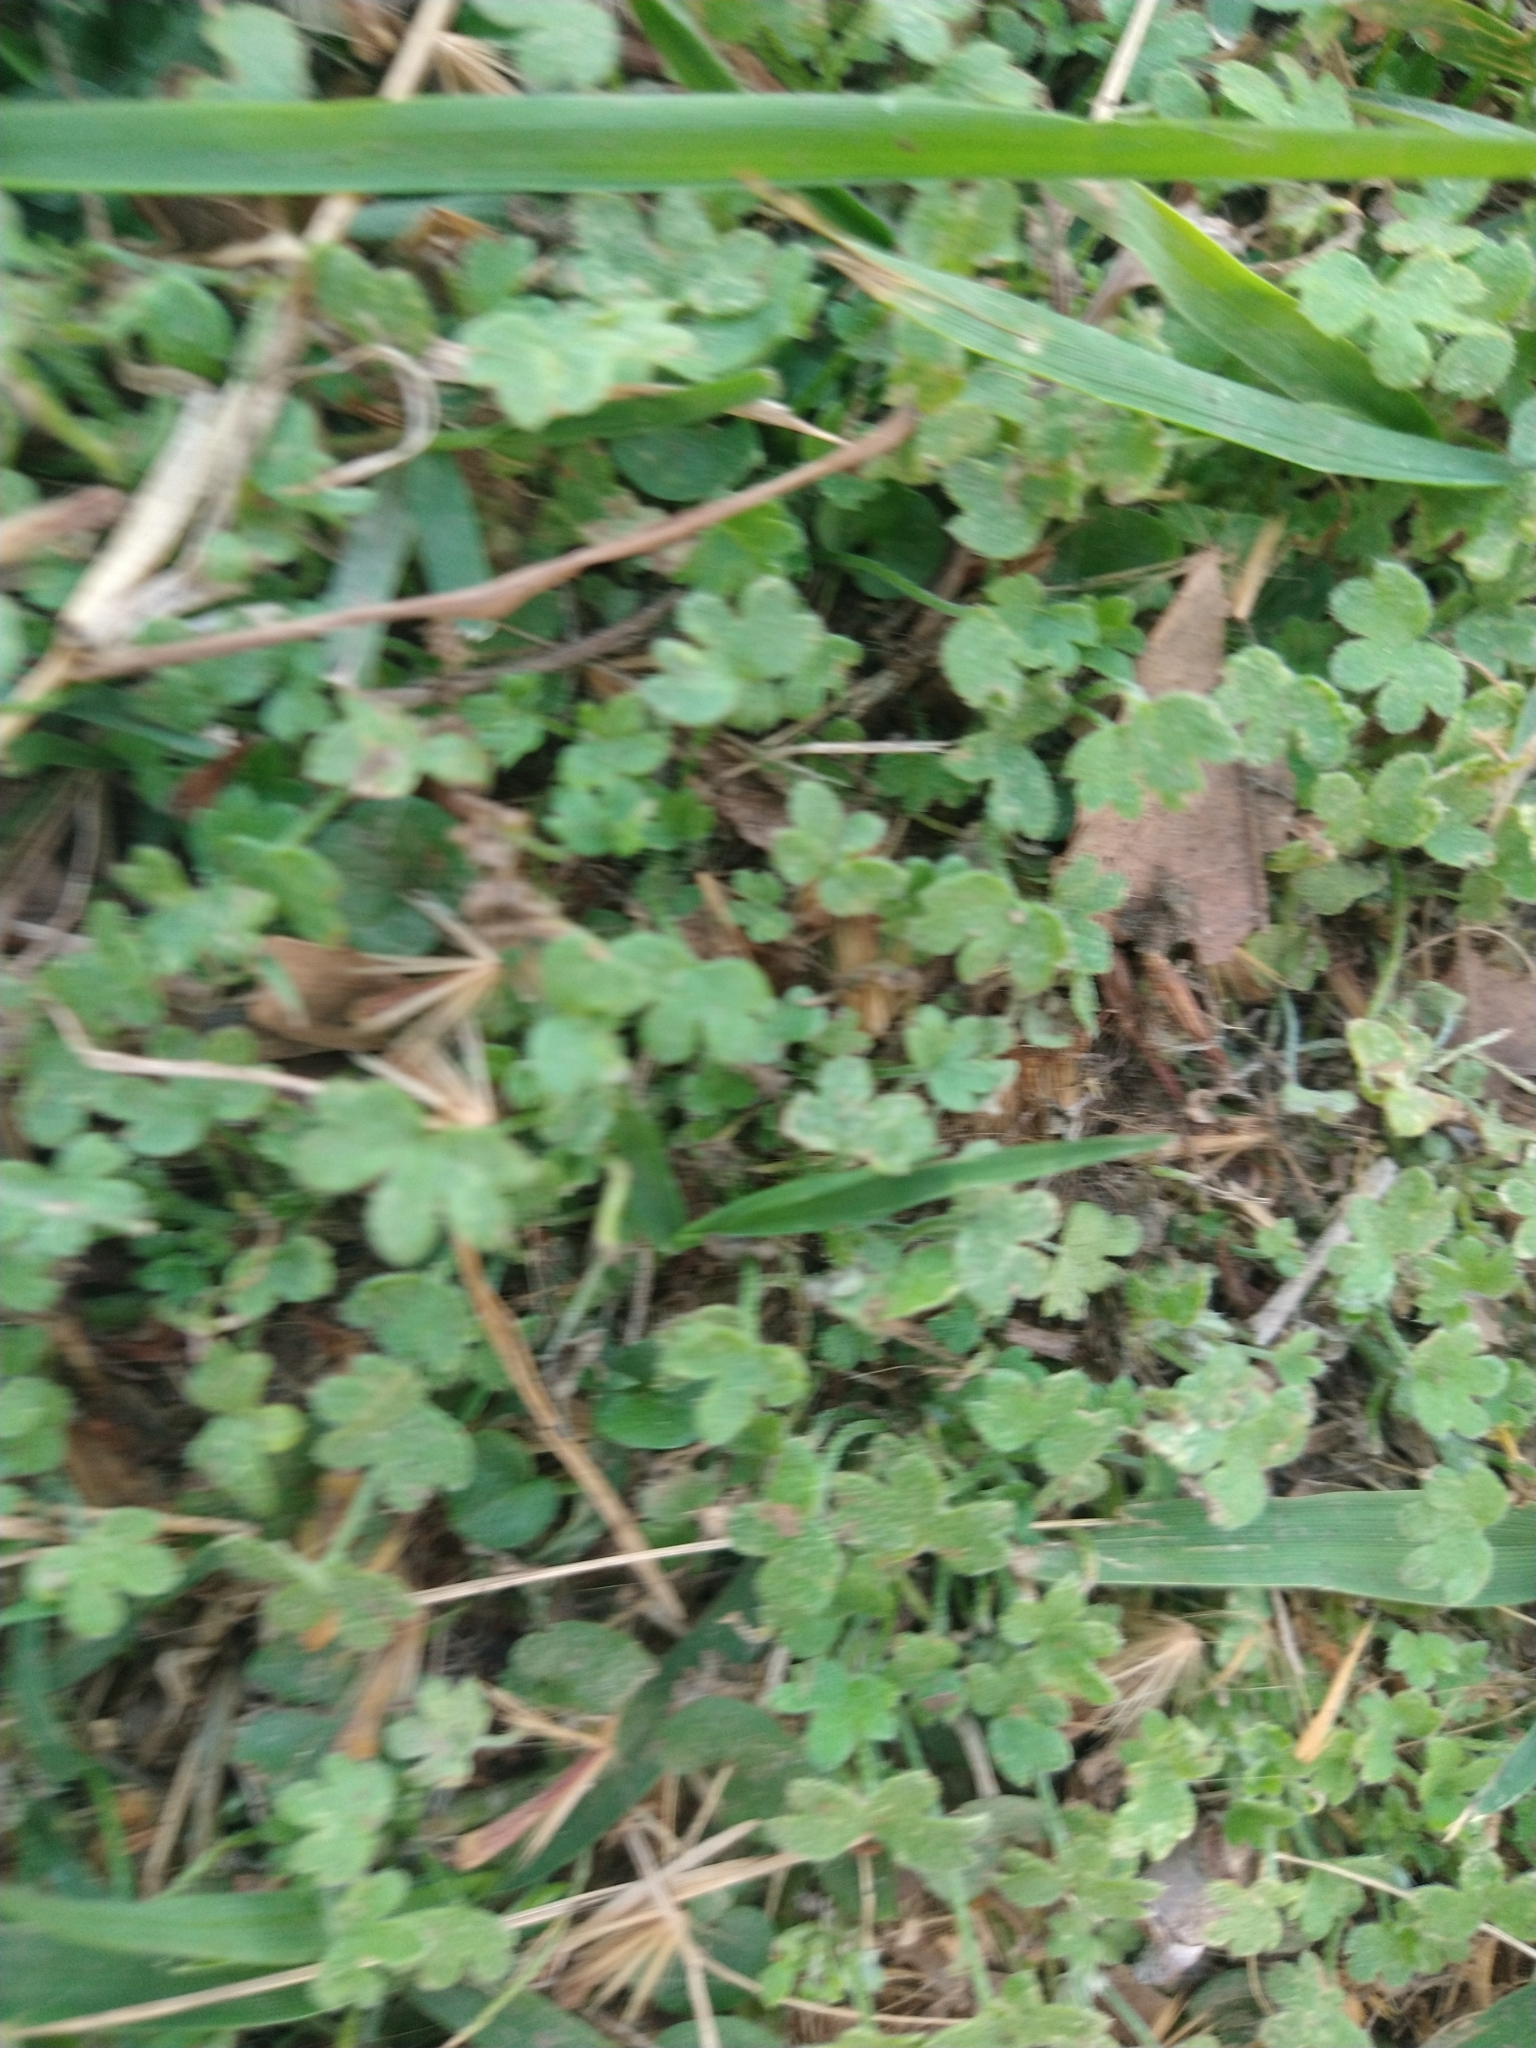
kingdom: Plantae
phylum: Tracheophyta
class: Magnoliopsida
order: Apiales
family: Apiaceae
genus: Bowlesia
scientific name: Bowlesia incana
